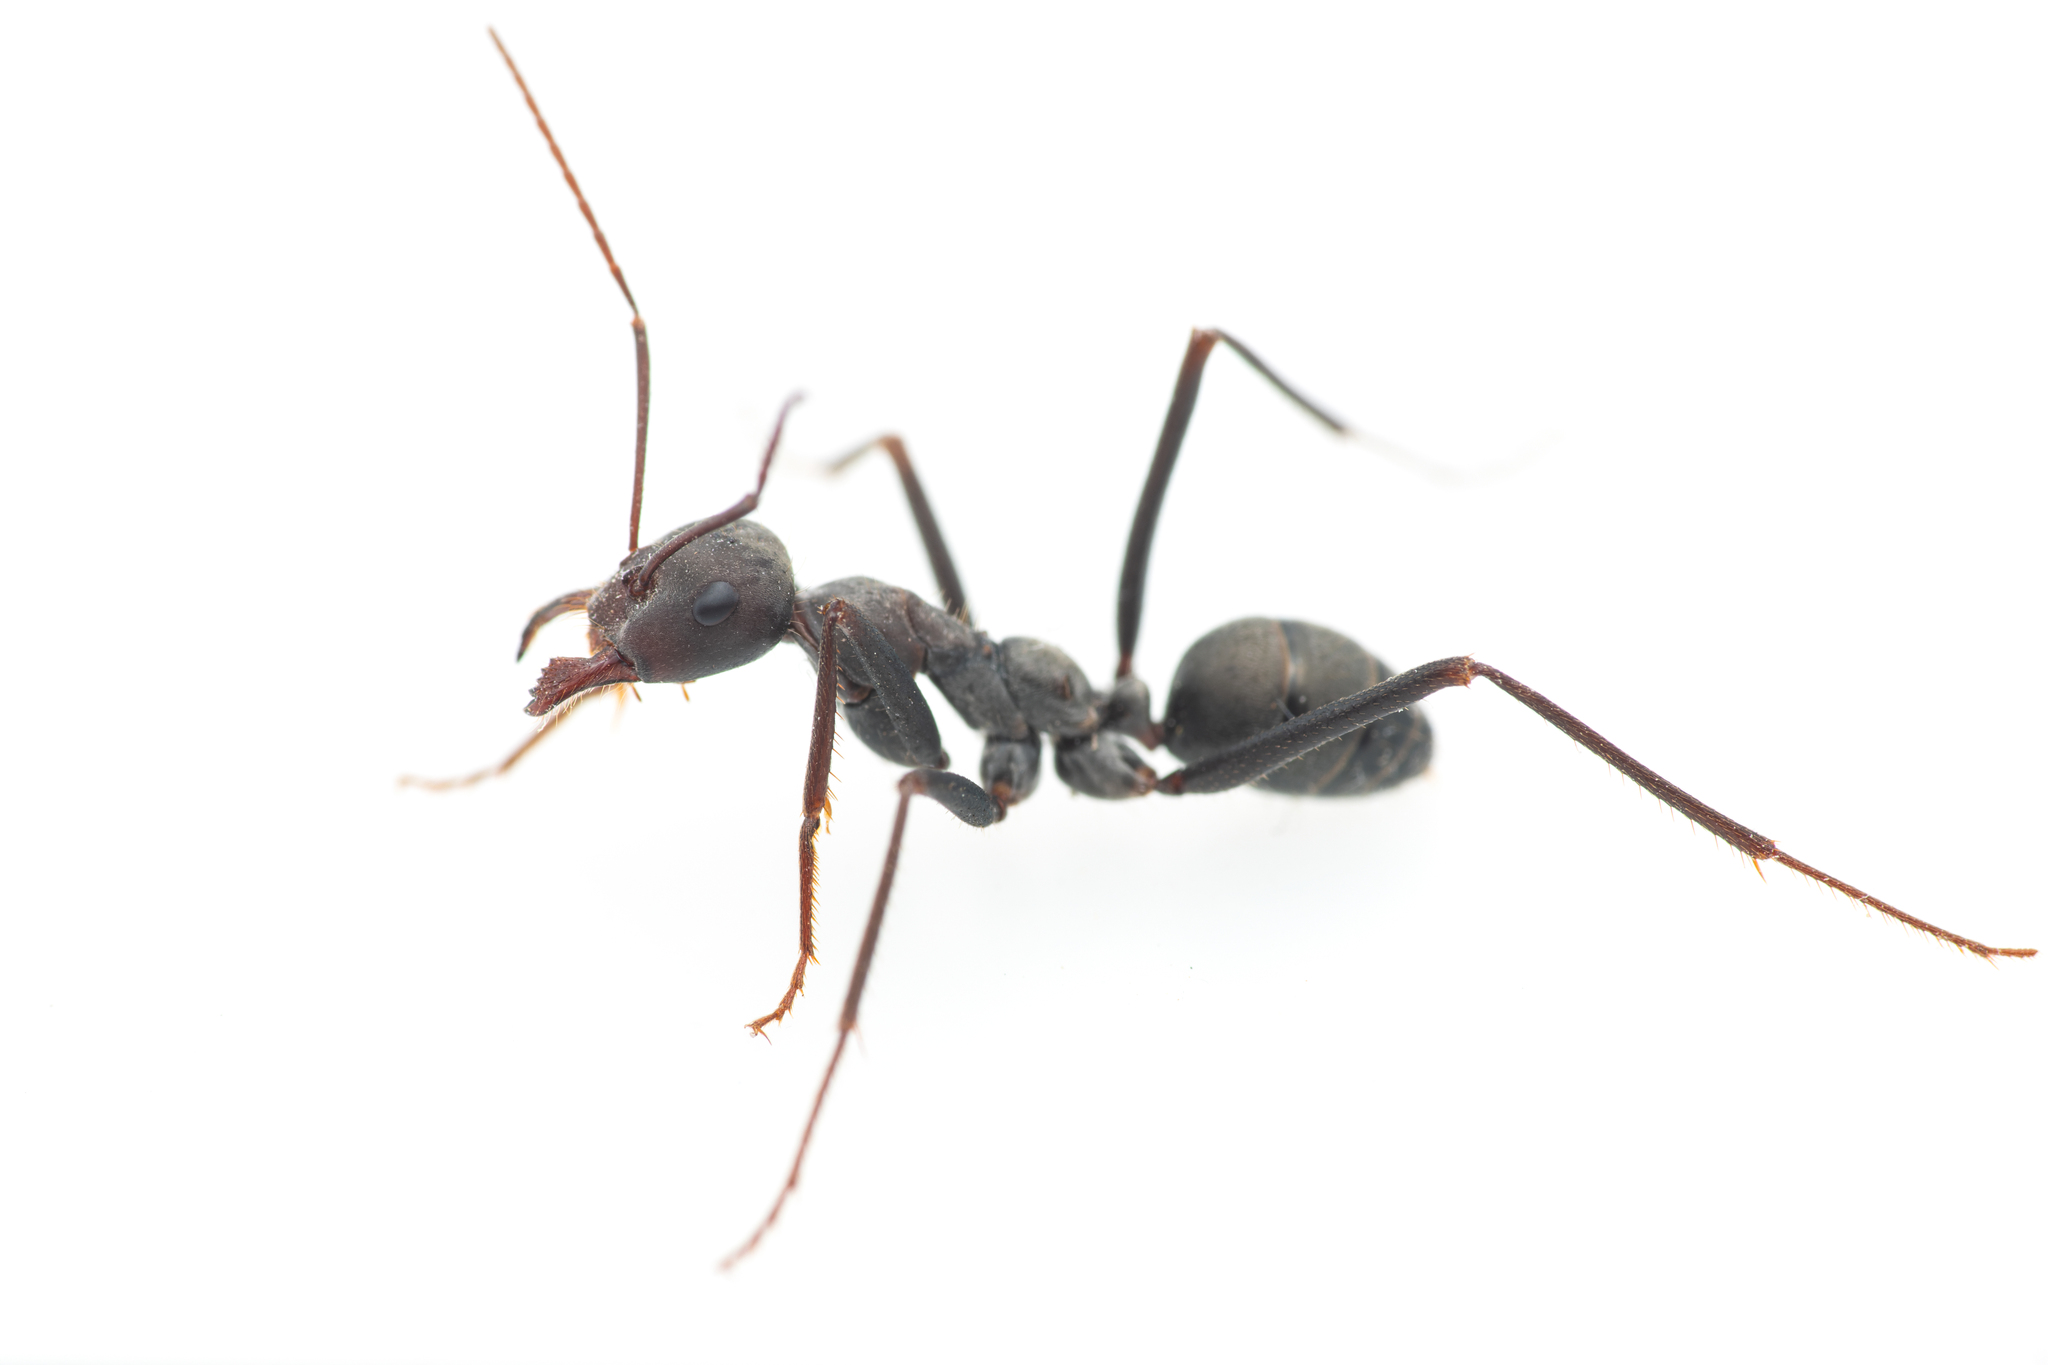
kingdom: Animalia
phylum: Arthropoda
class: Insecta
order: Hymenoptera
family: Formicidae
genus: Cataglyphis
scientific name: Cataglyphis hispanicus
